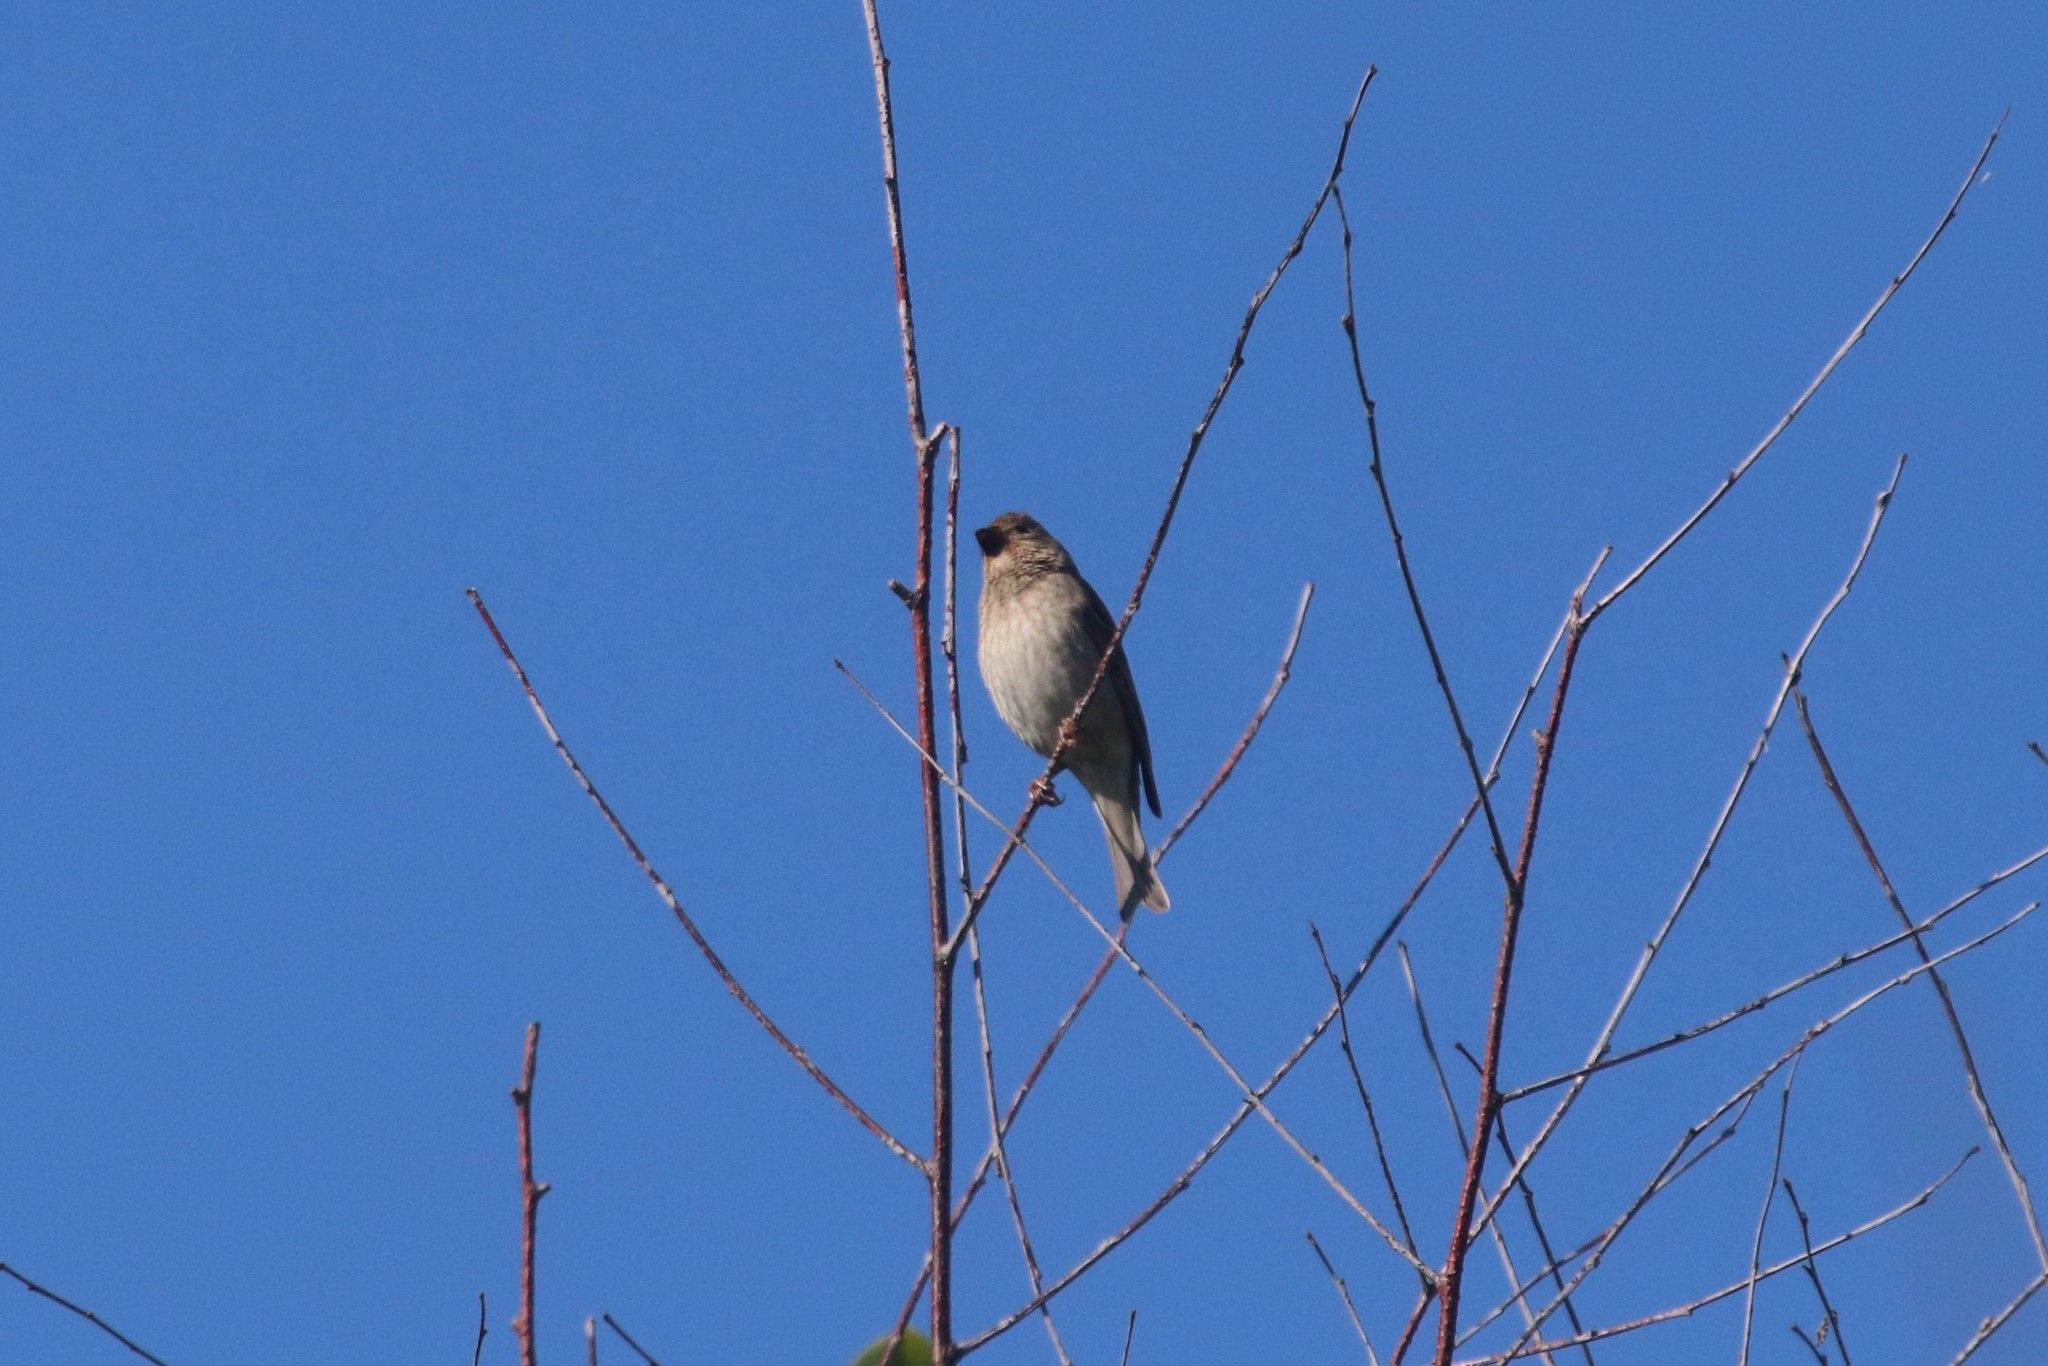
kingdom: Animalia
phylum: Chordata
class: Aves
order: Passeriformes
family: Fringillidae
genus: Carpodacus
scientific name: Carpodacus erythrinus
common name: Common rosefinch
